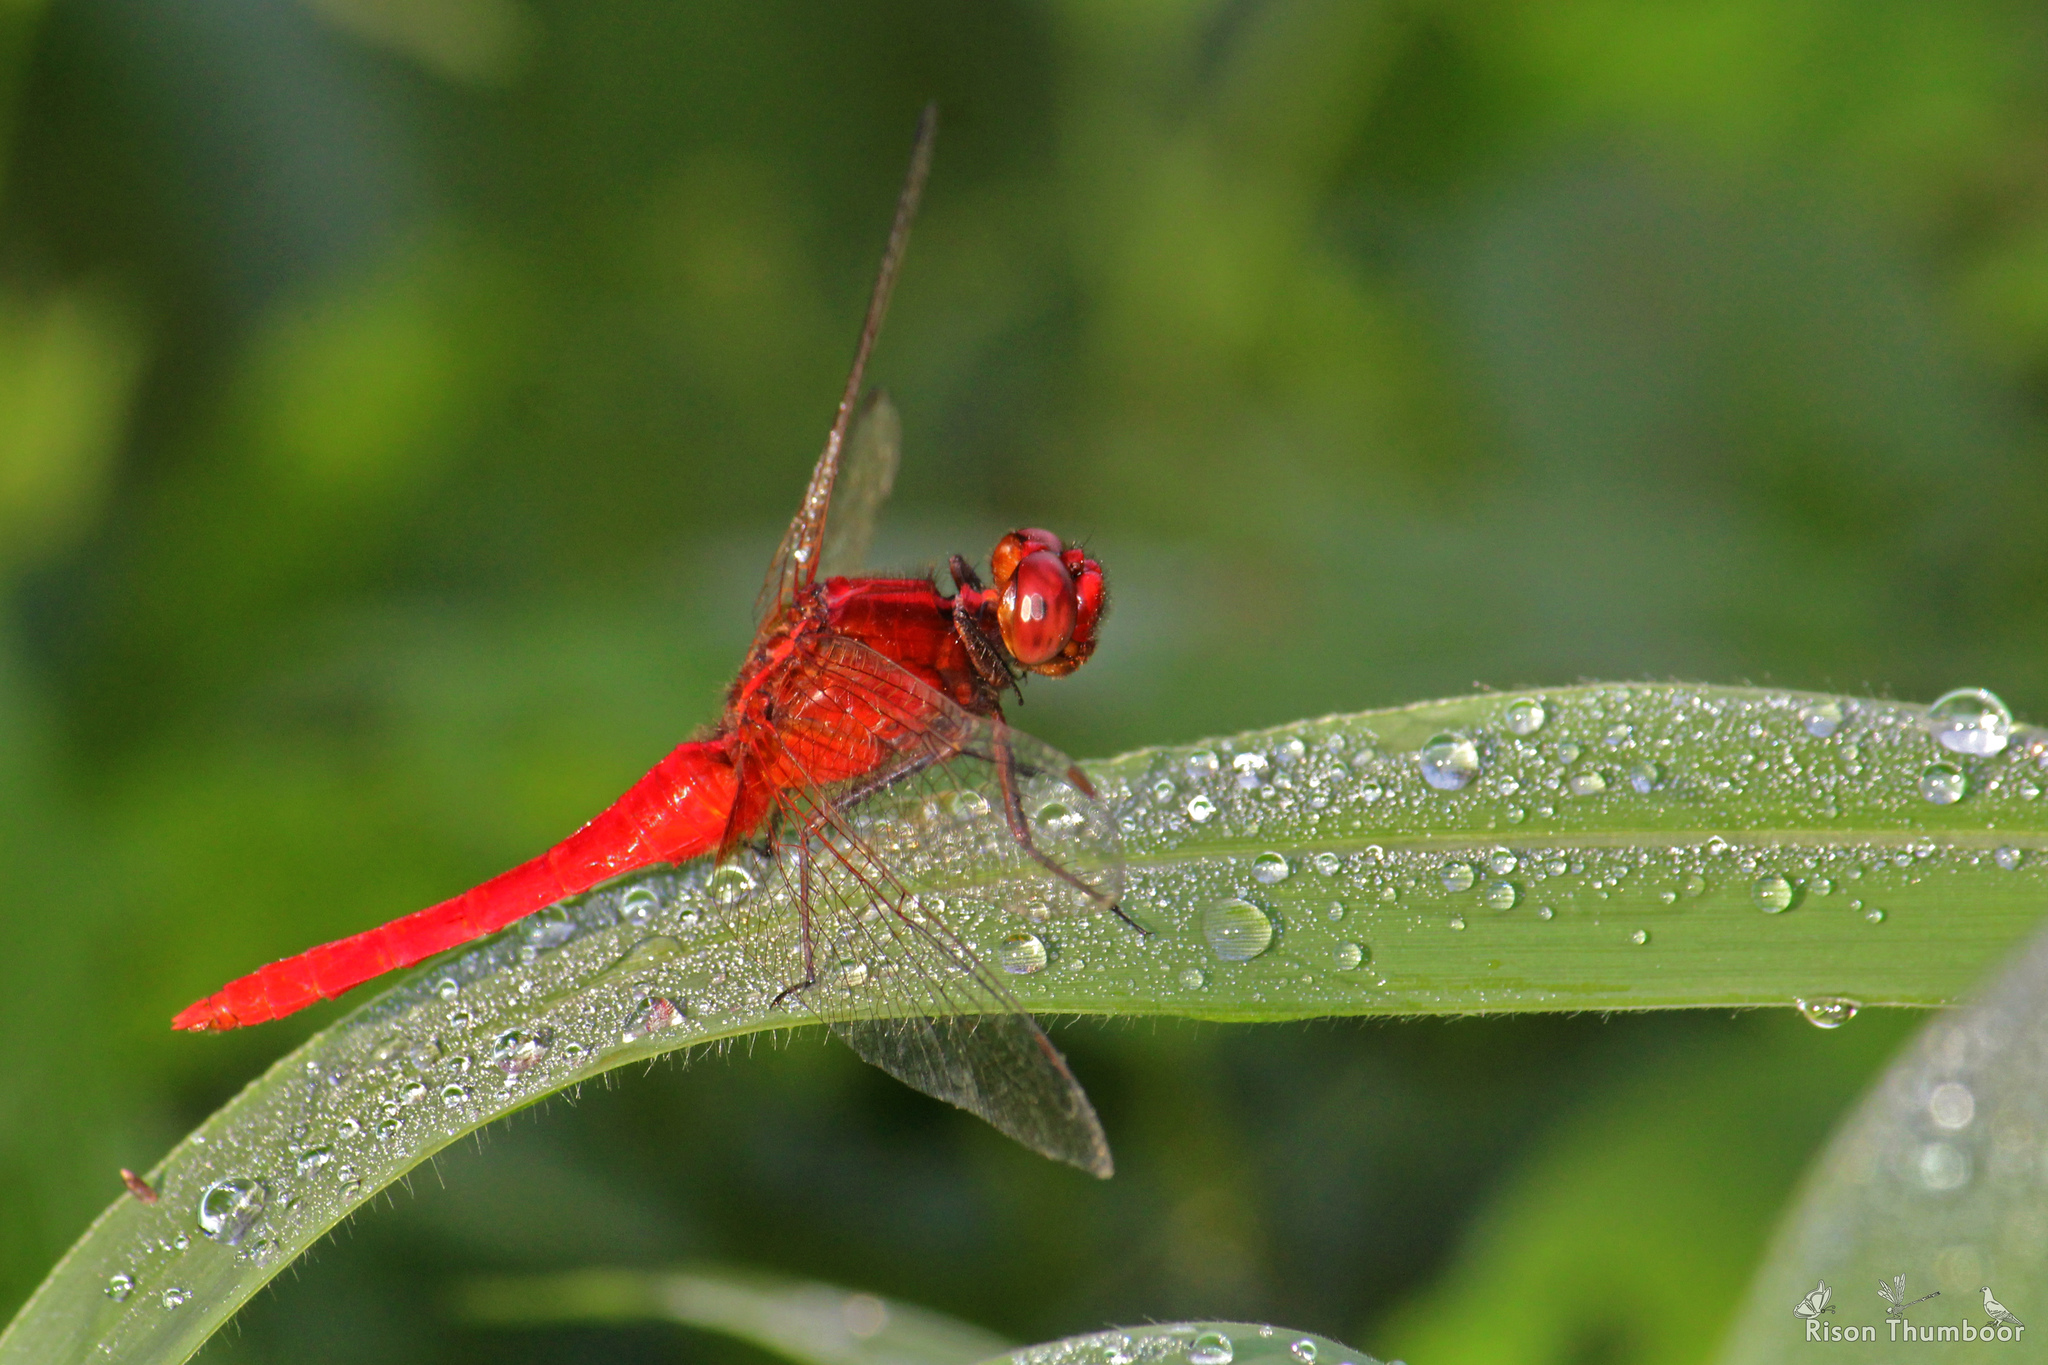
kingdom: Animalia
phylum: Arthropoda
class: Insecta
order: Odonata
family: Libellulidae
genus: Rhodothemis
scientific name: Rhodothemis rufa
